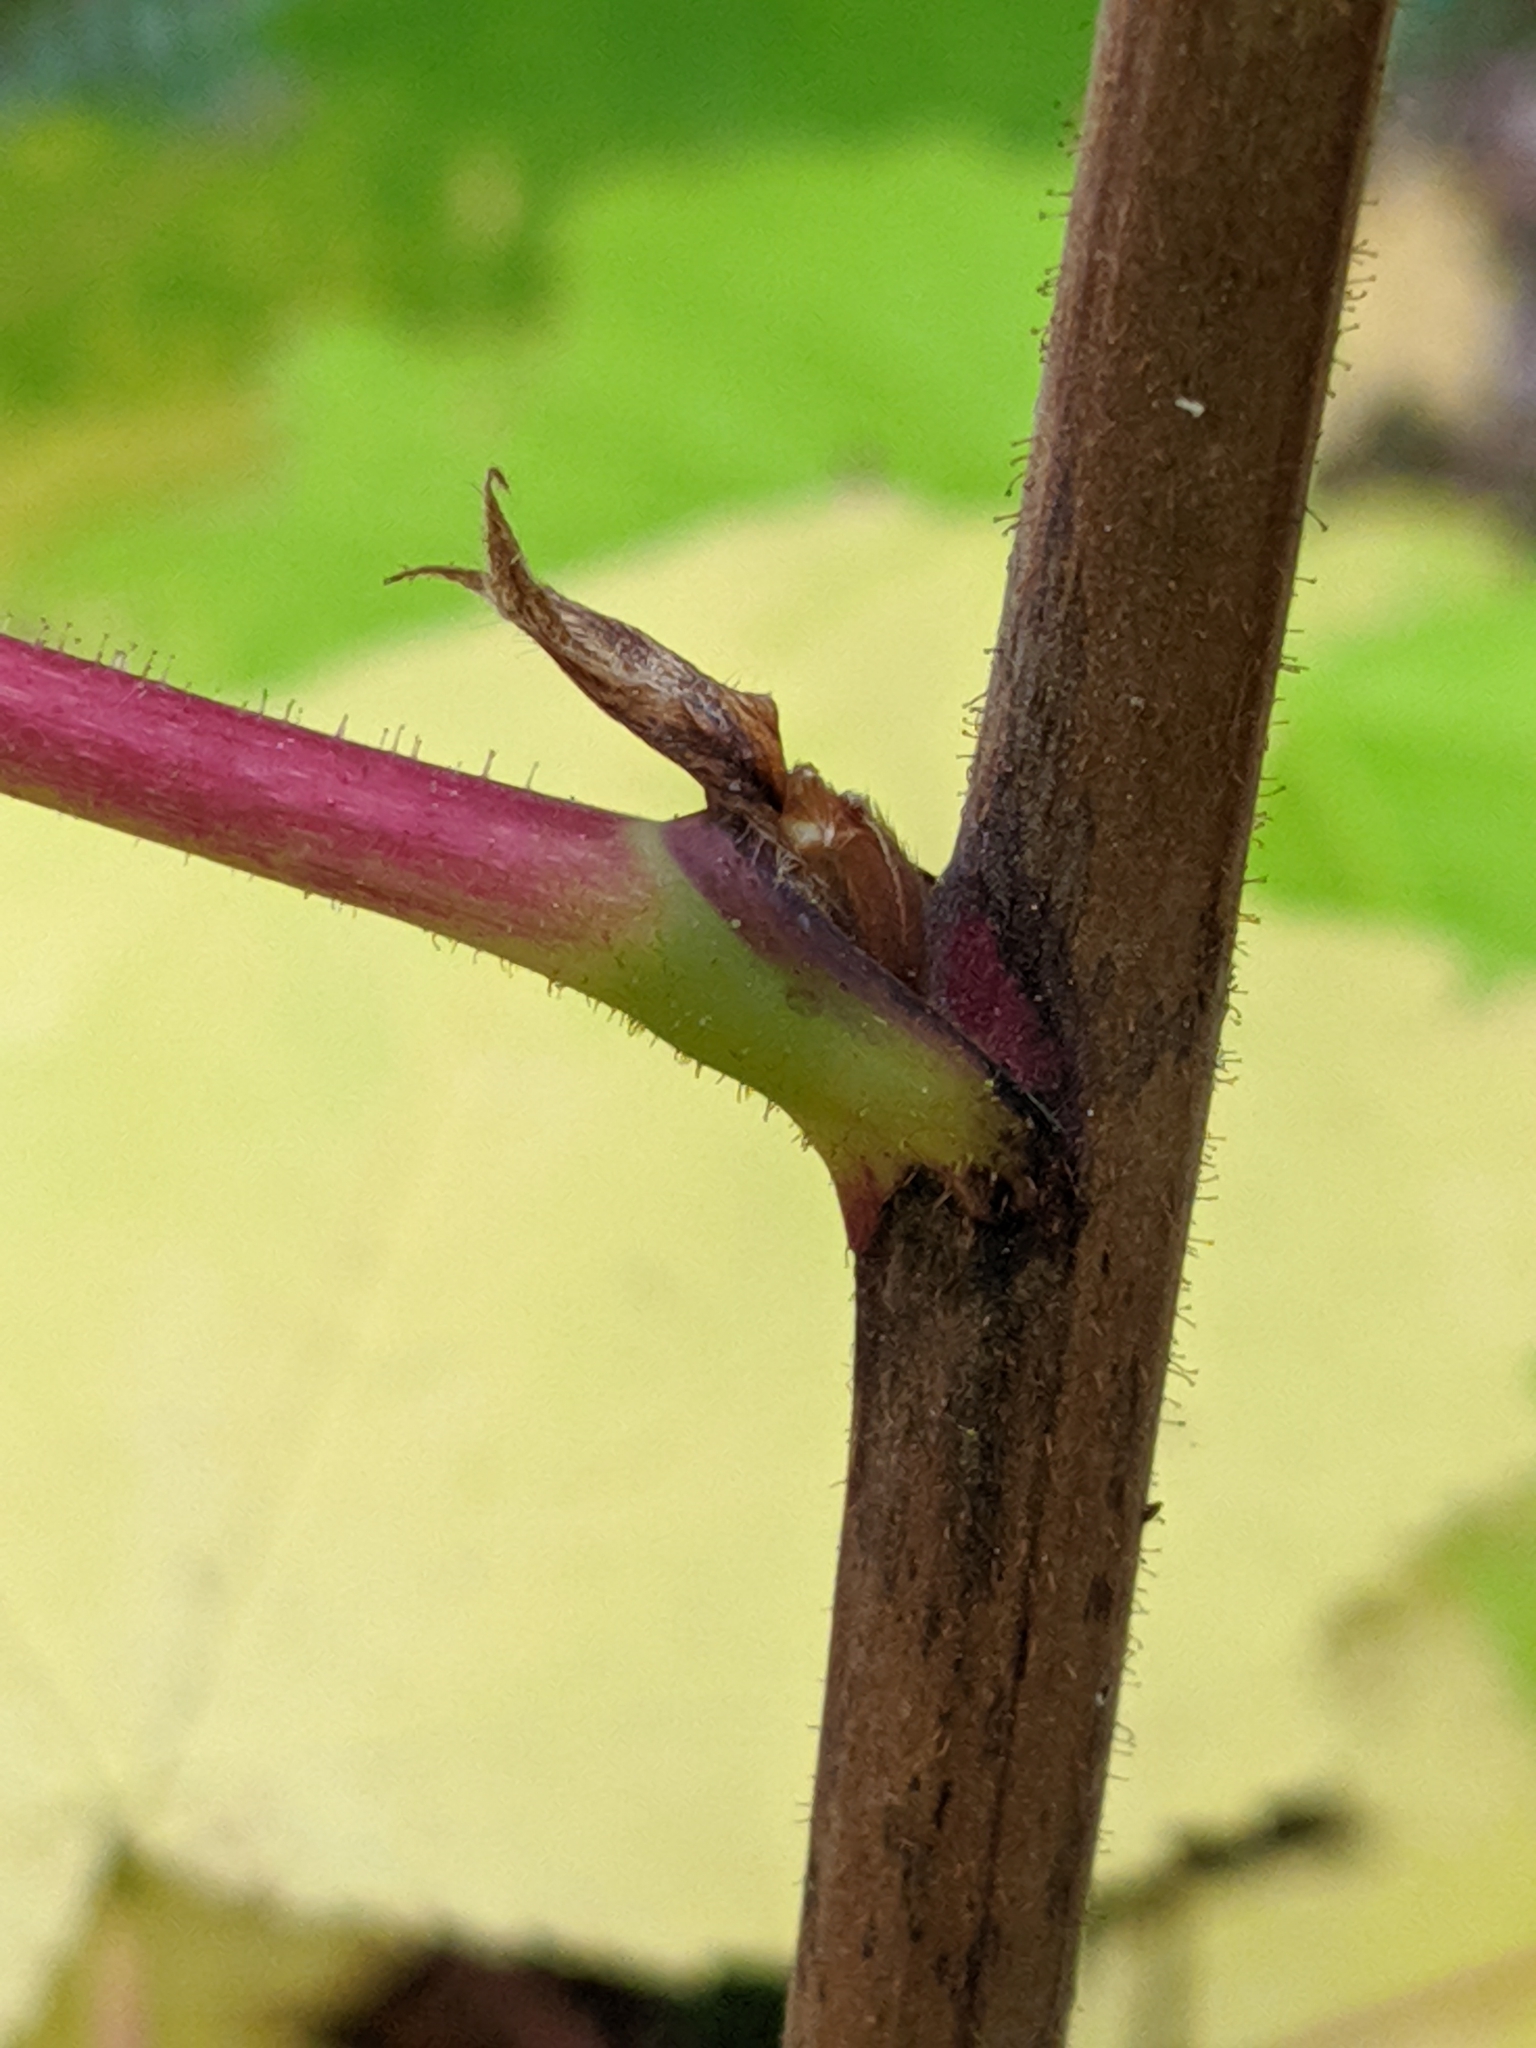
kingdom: Plantae
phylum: Tracheophyta
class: Magnoliopsida
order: Rosales
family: Rosaceae
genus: Rubus
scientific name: Rubus parviflorus
